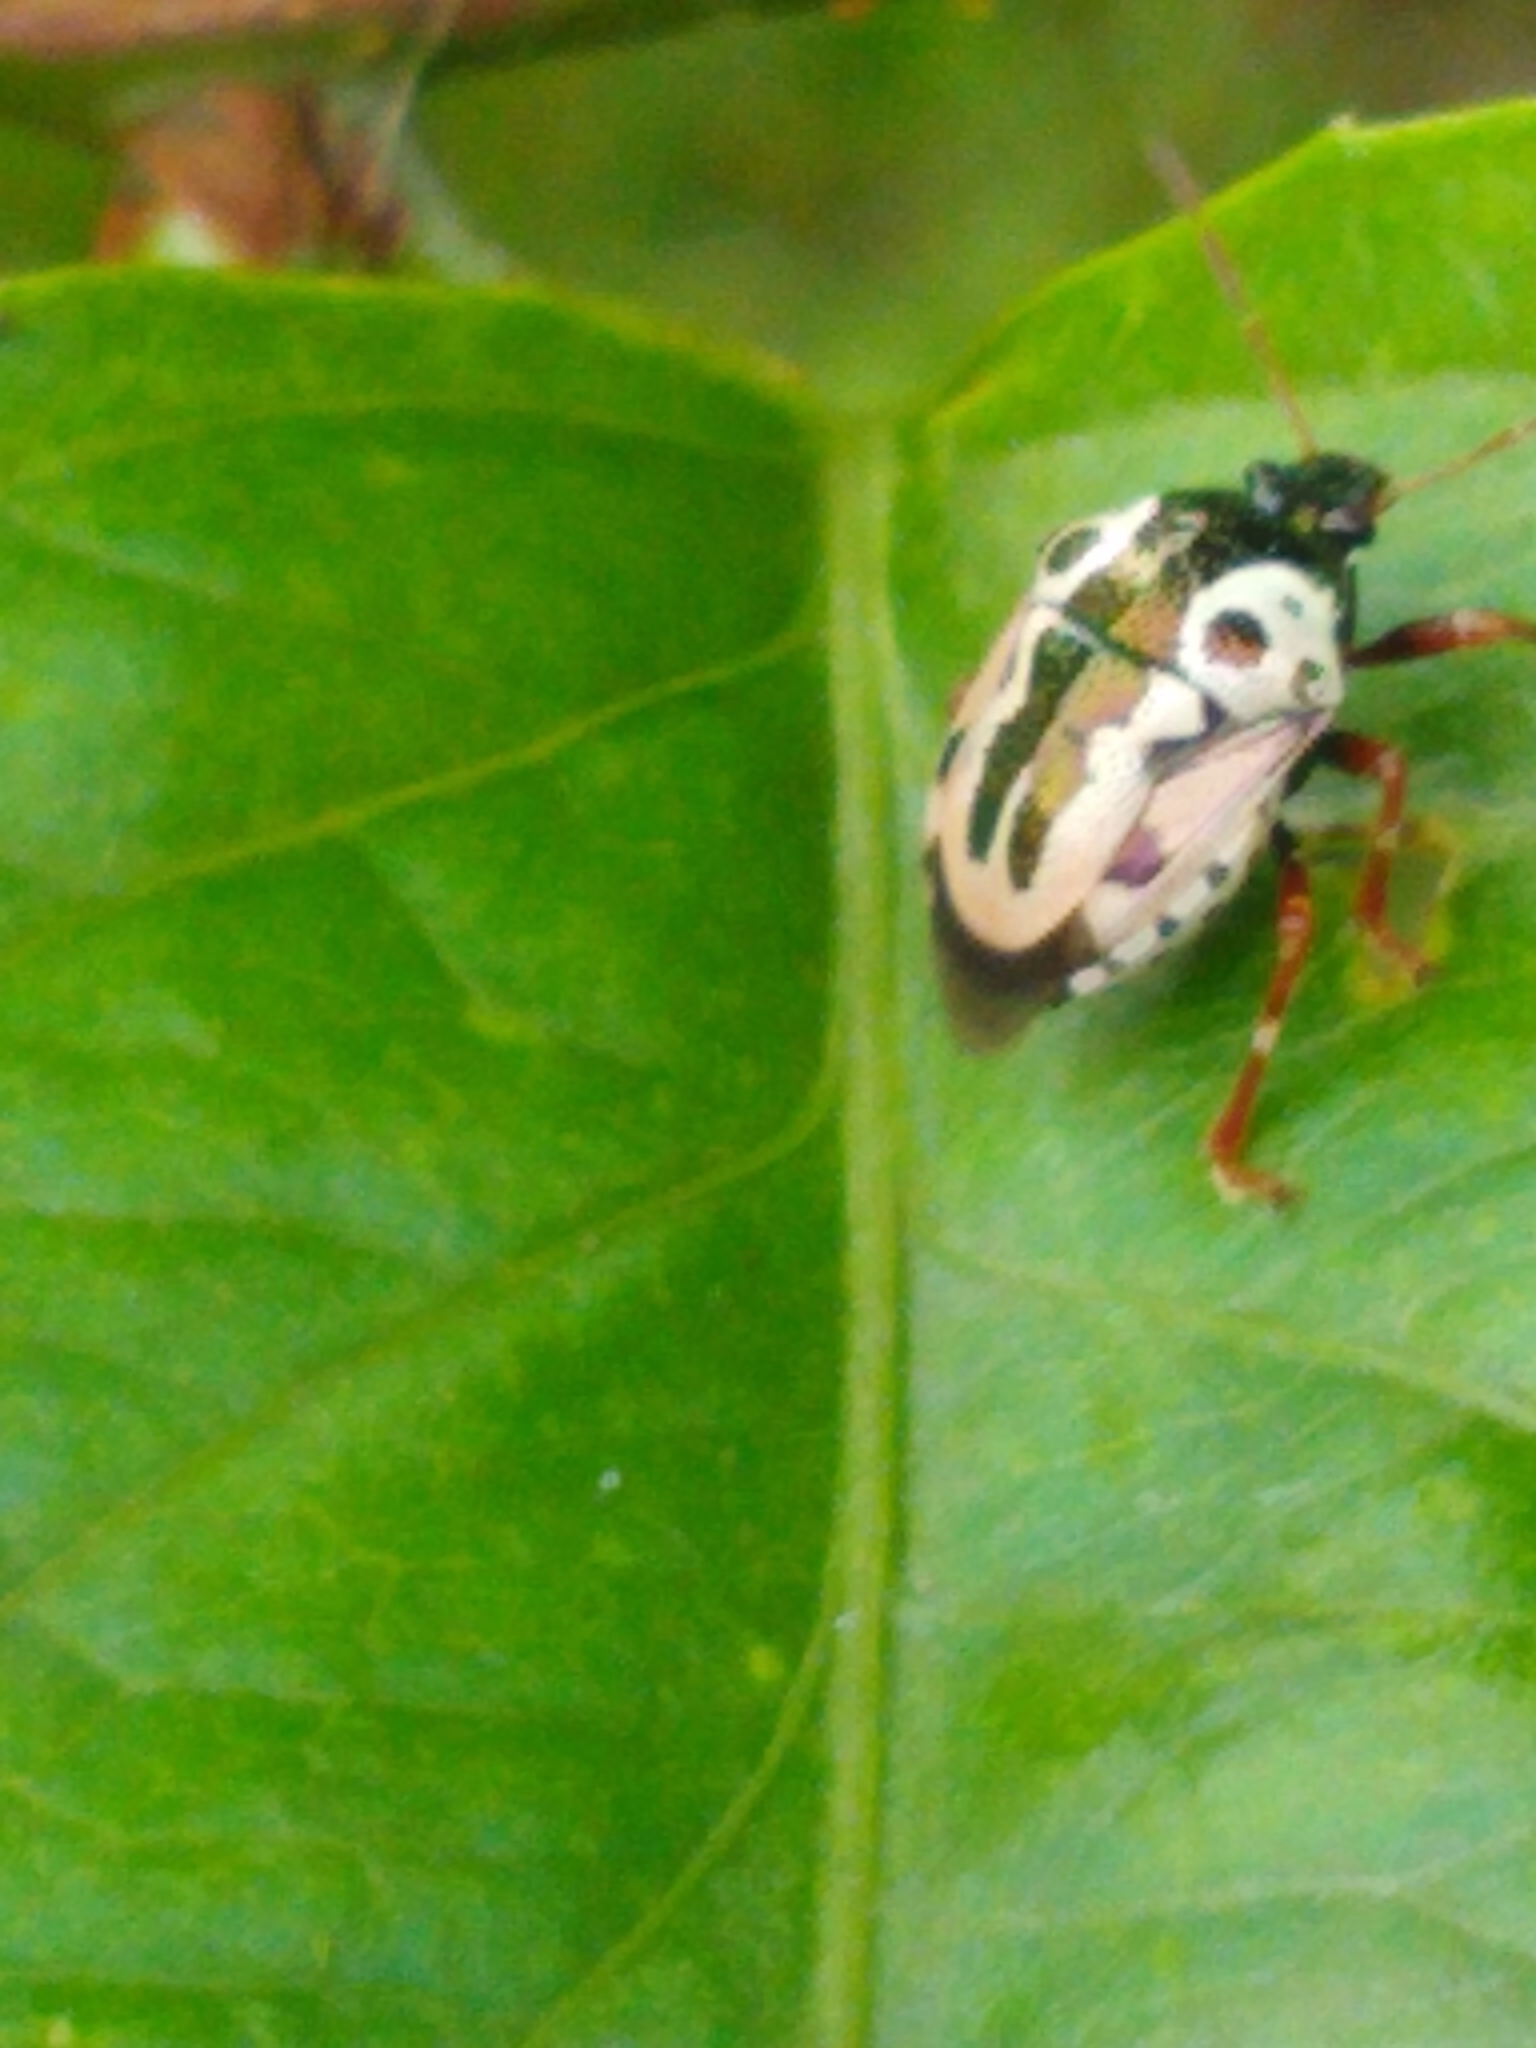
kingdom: Animalia
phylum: Arthropoda
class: Insecta
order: Hemiptera
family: Pentatomidae
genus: Stiretrus
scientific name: Stiretrus anchorago
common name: Anchor stink bug
